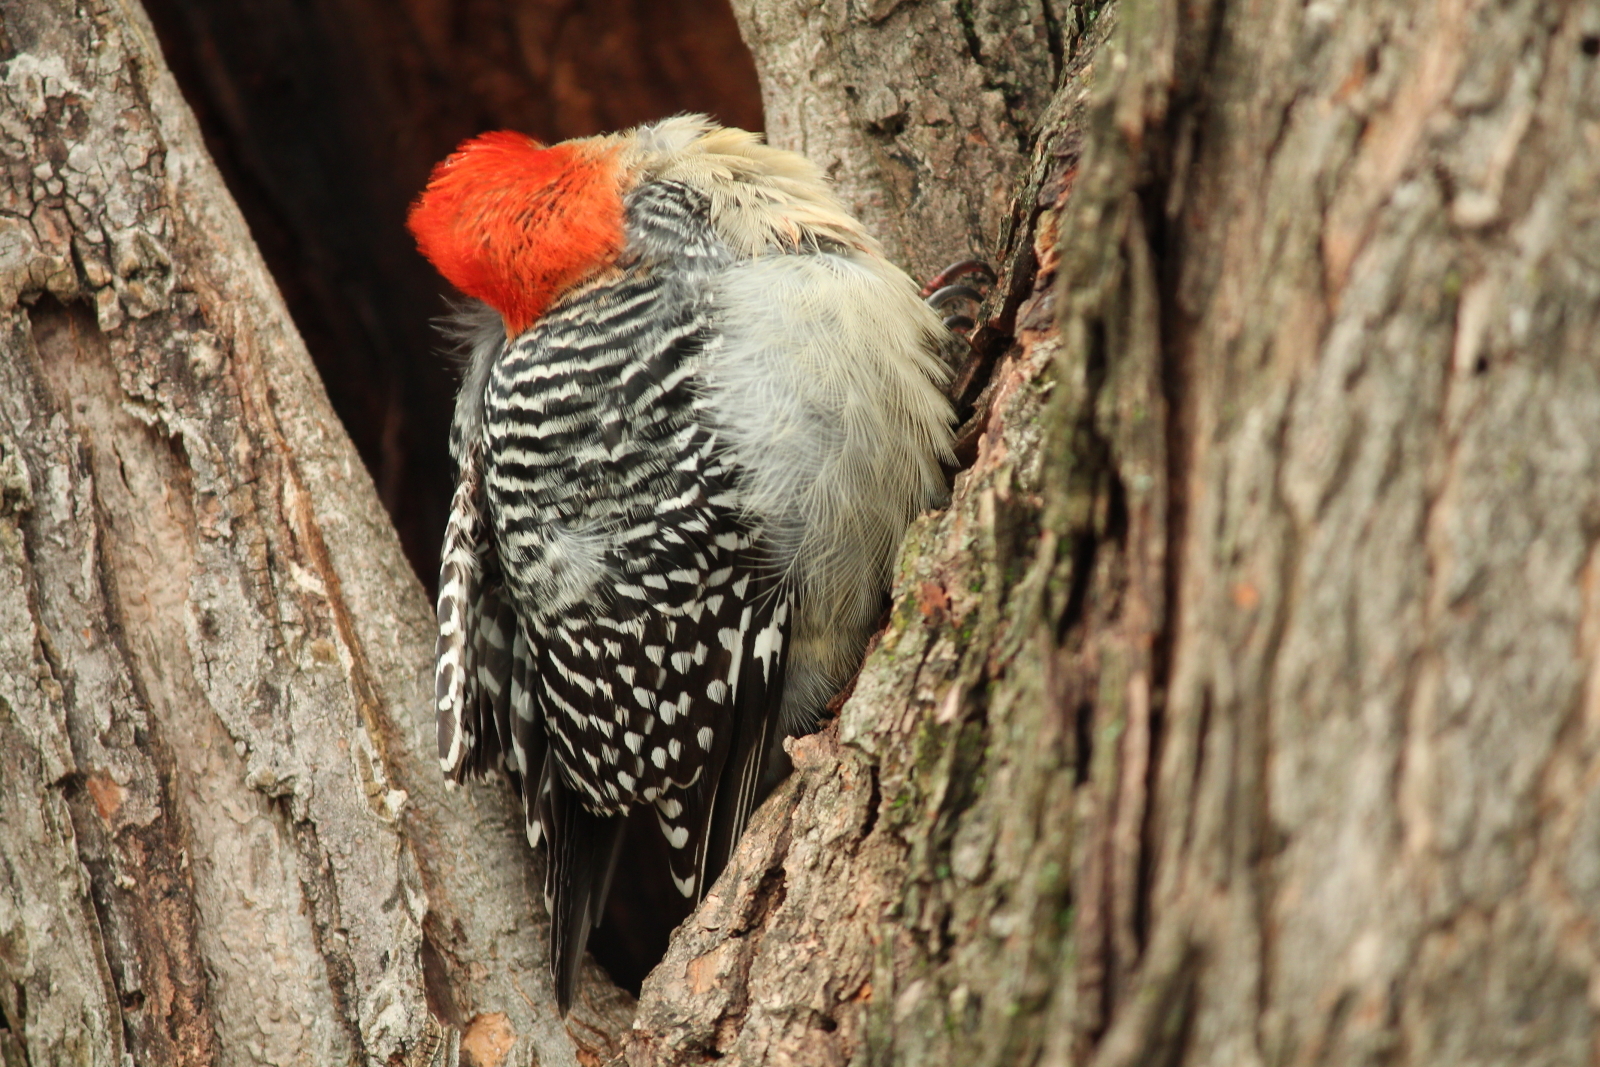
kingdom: Animalia
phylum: Chordata
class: Aves
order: Piciformes
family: Picidae
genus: Melanerpes
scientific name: Melanerpes carolinus
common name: Red-bellied woodpecker
